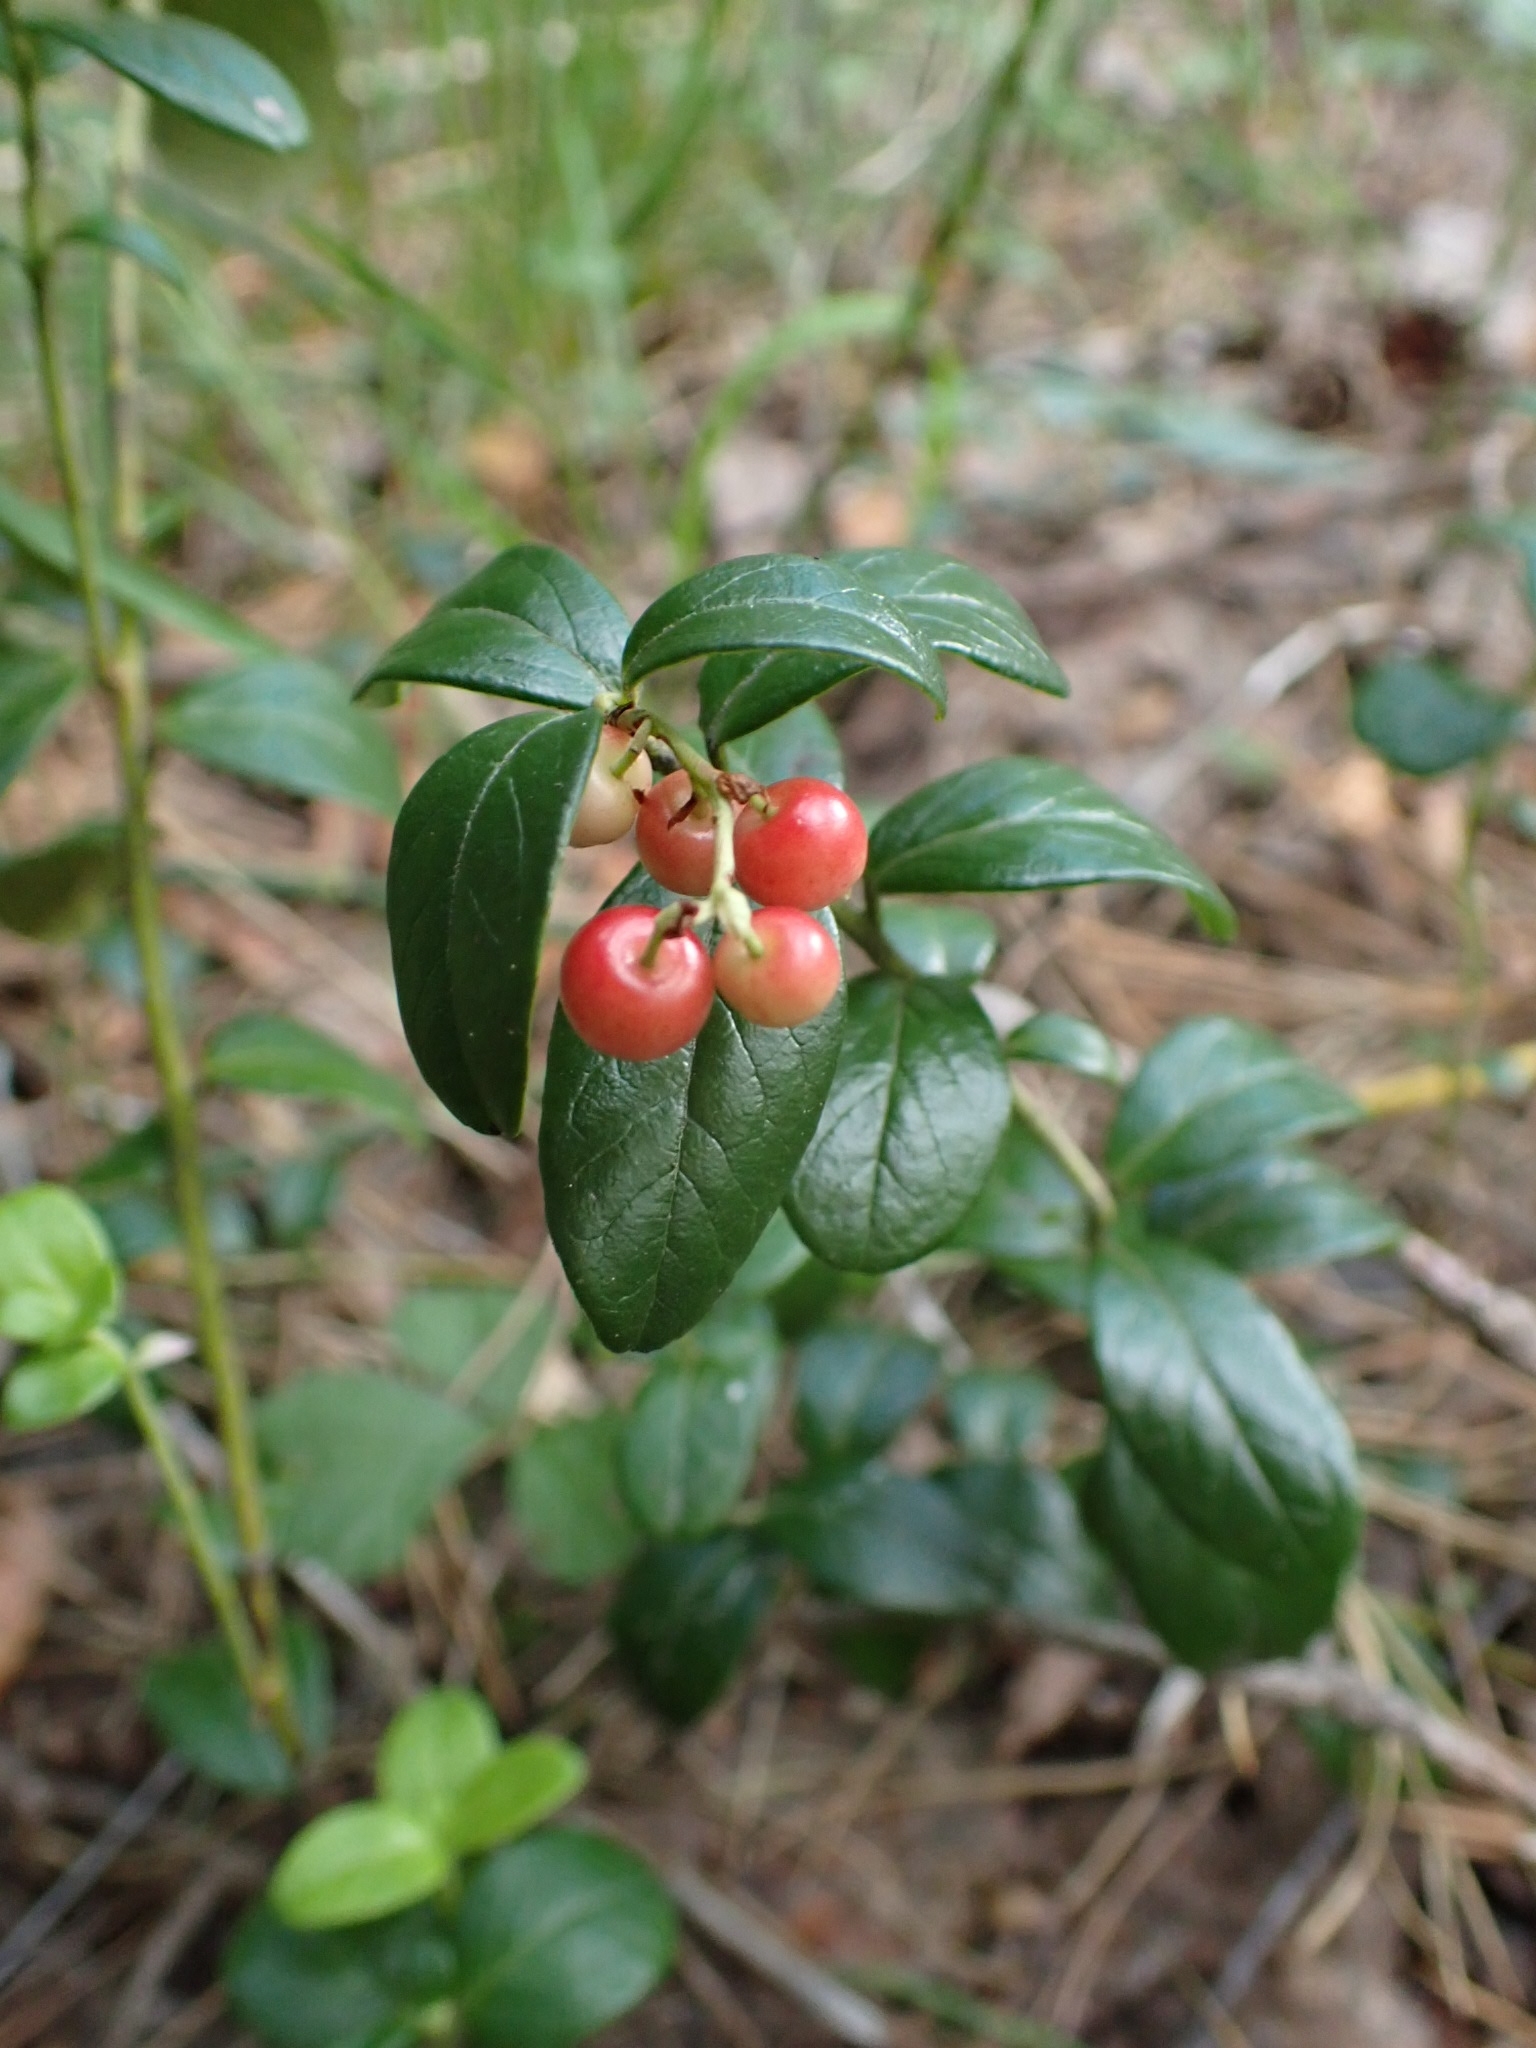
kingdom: Plantae
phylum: Tracheophyta
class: Magnoliopsida
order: Ericales
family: Ericaceae
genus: Vaccinium
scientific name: Vaccinium vitis-idaea
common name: Cowberry
